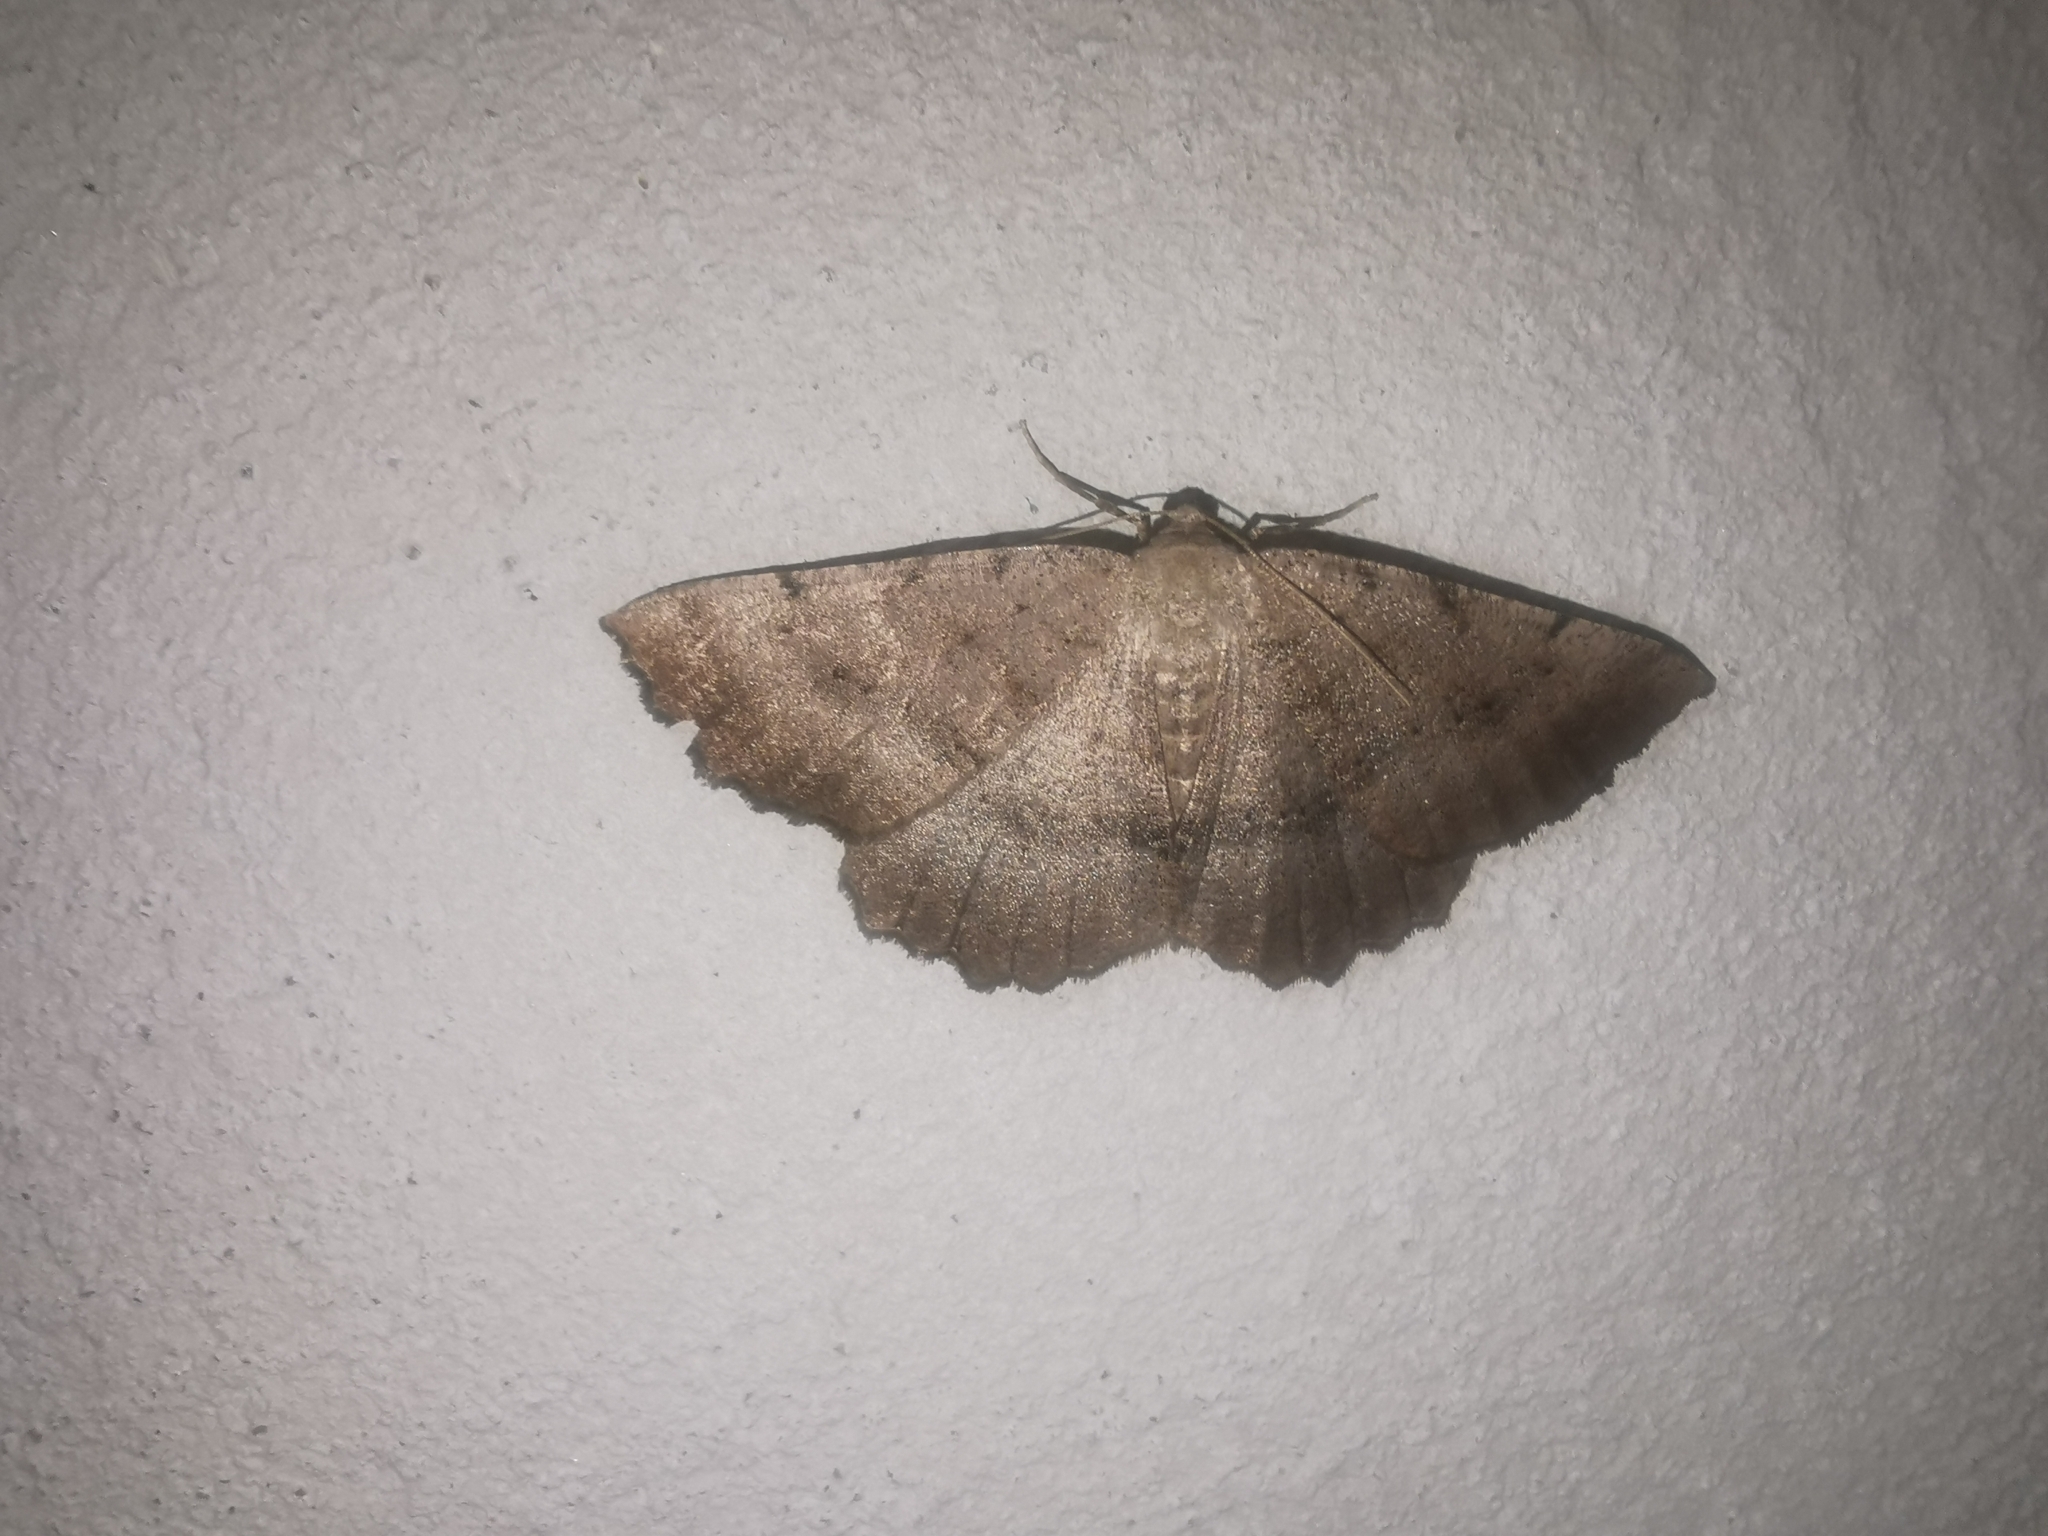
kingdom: Animalia
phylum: Arthropoda
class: Insecta
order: Lepidoptera
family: Geometridae
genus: Odontognophos
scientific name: Odontognophos dumetata
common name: Irish annulet
